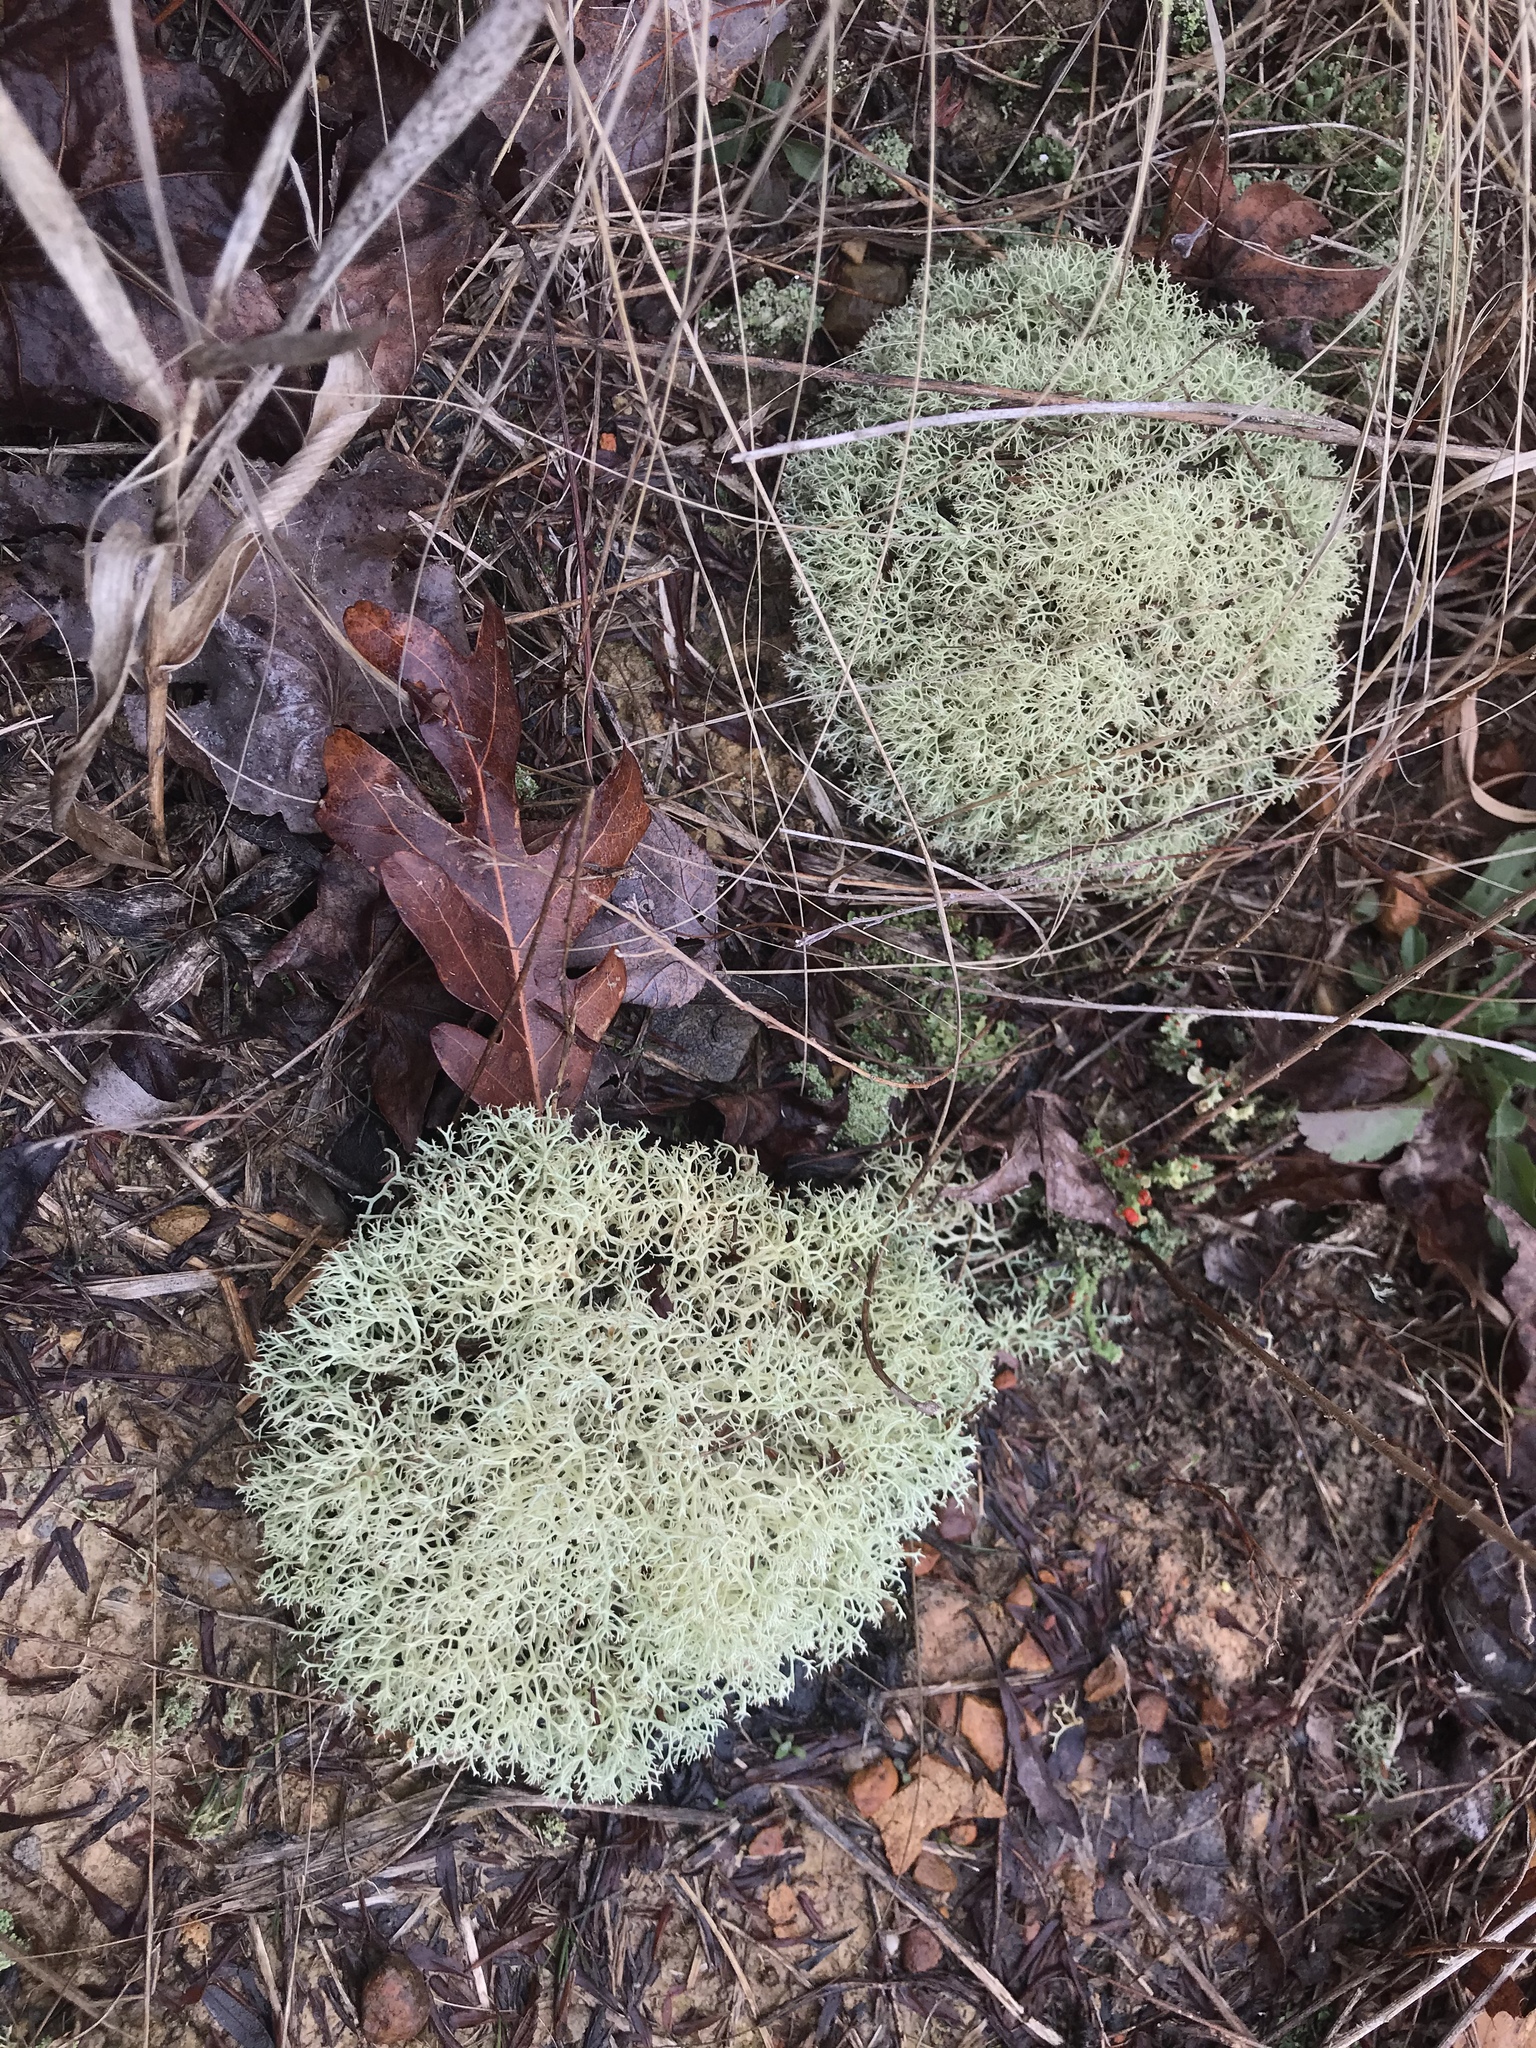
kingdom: Fungi
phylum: Ascomycota
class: Lecanoromycetes
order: Lecanorales
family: Cladoniaceae
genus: Cladonia
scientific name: Cladonia subtenuis
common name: Dixie reindeer lichen
